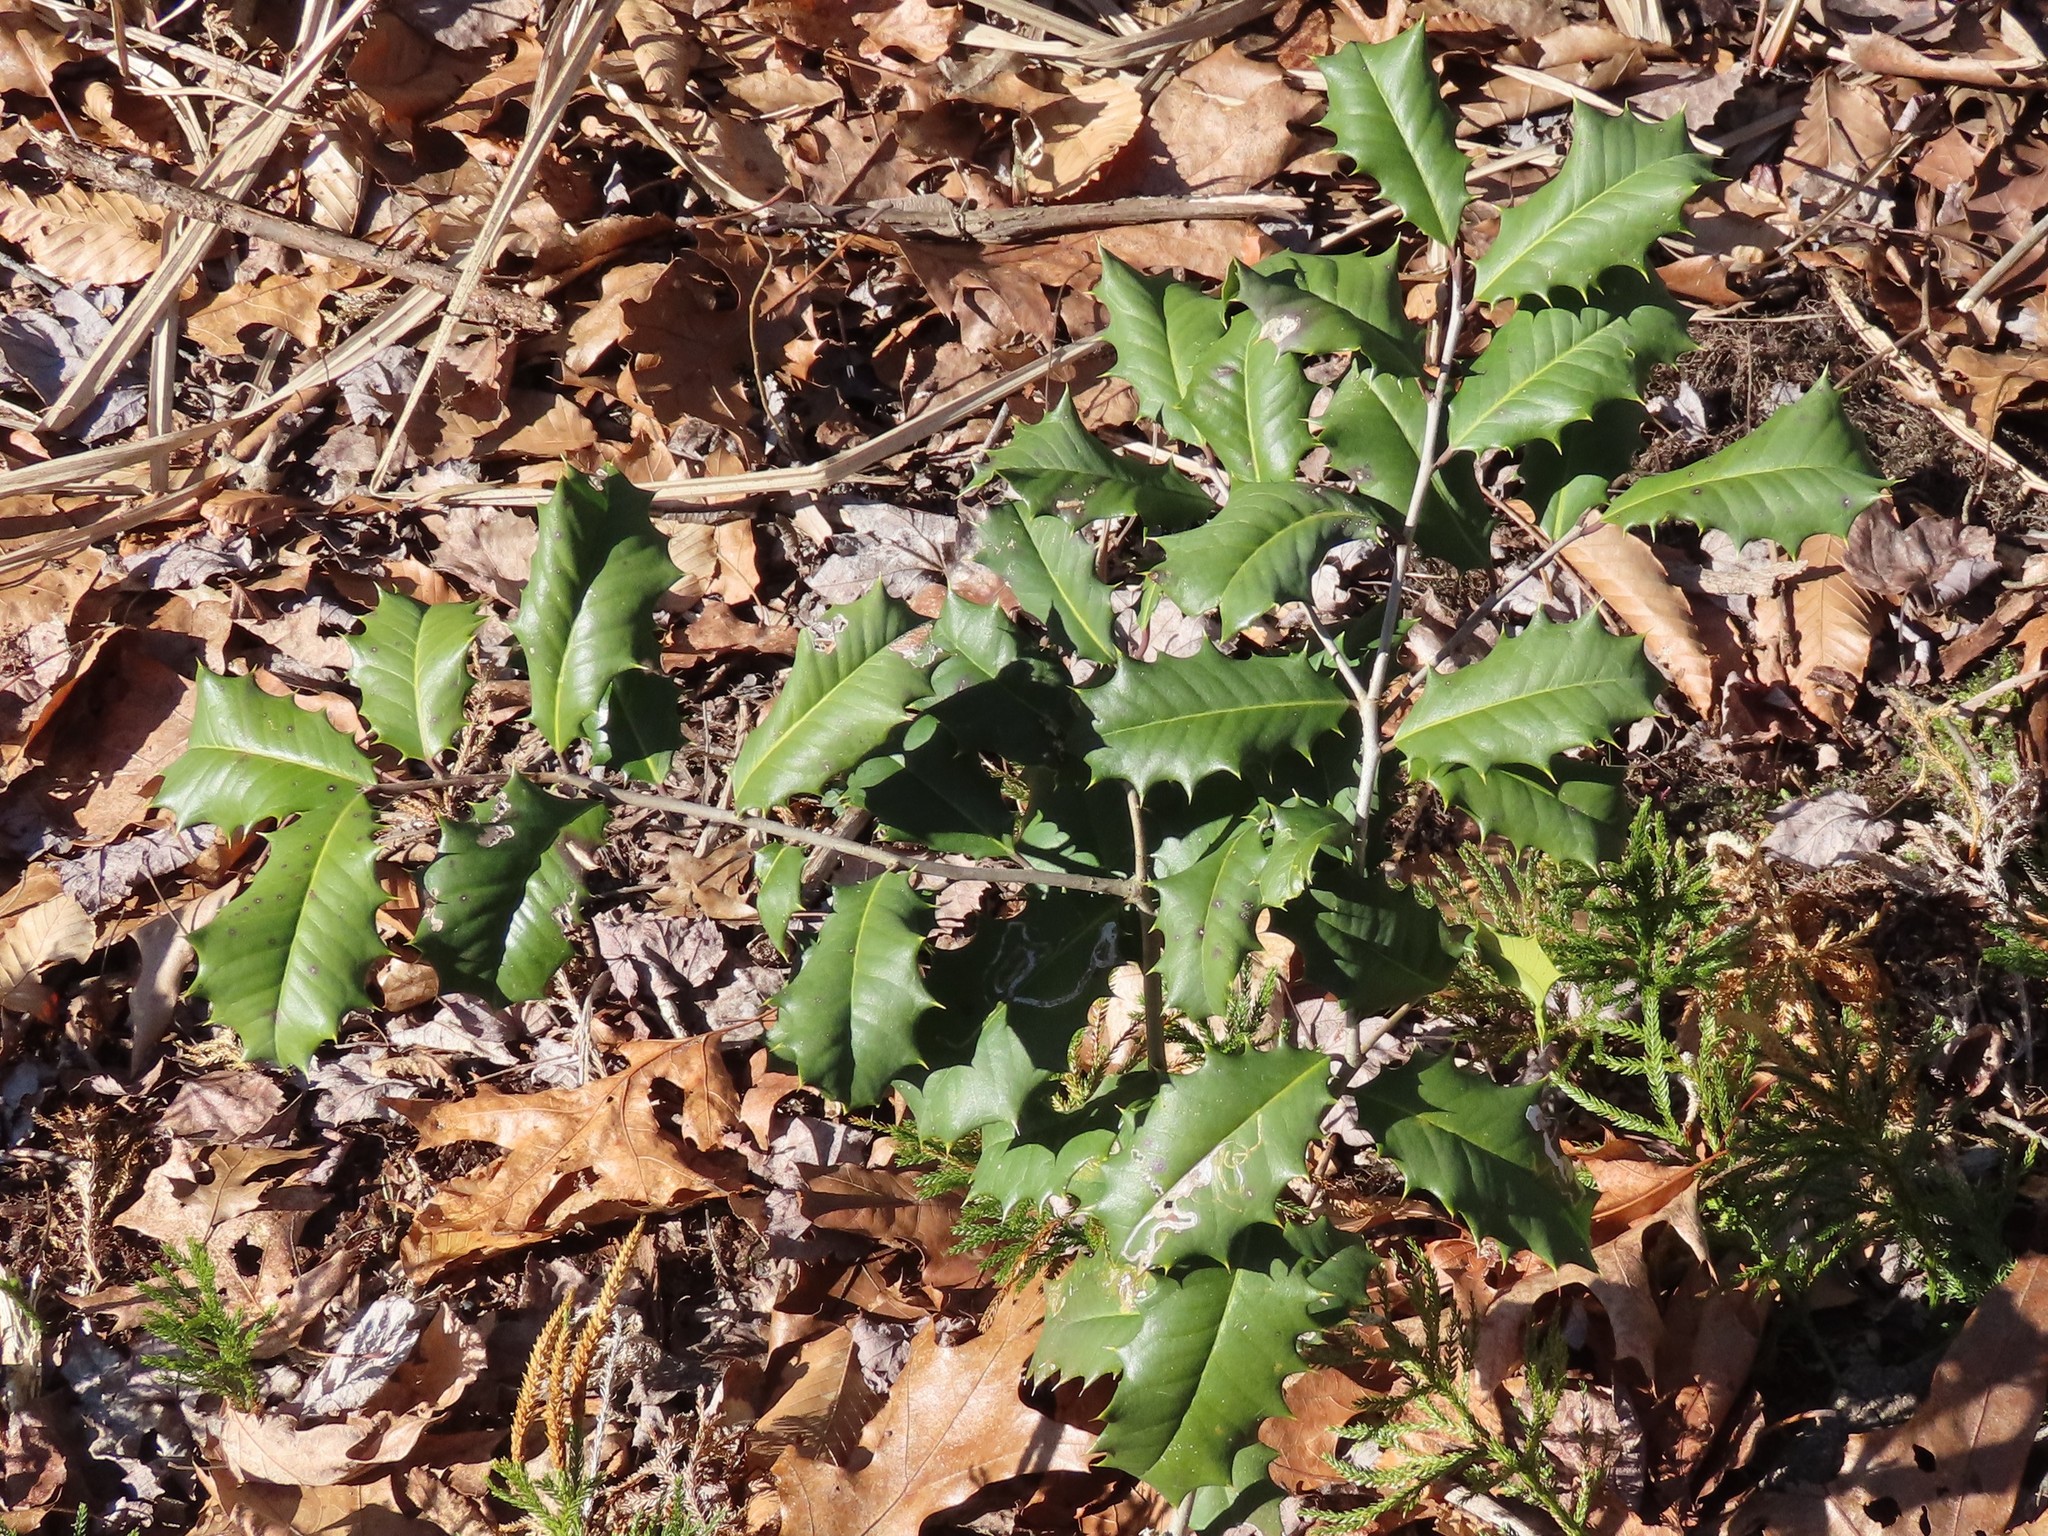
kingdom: Plantae
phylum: Tracheophyta
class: Magnoliopsida
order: Aquifoliales
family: Aquifoliaceae
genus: Ilex
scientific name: Ilex opaca
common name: American holly
